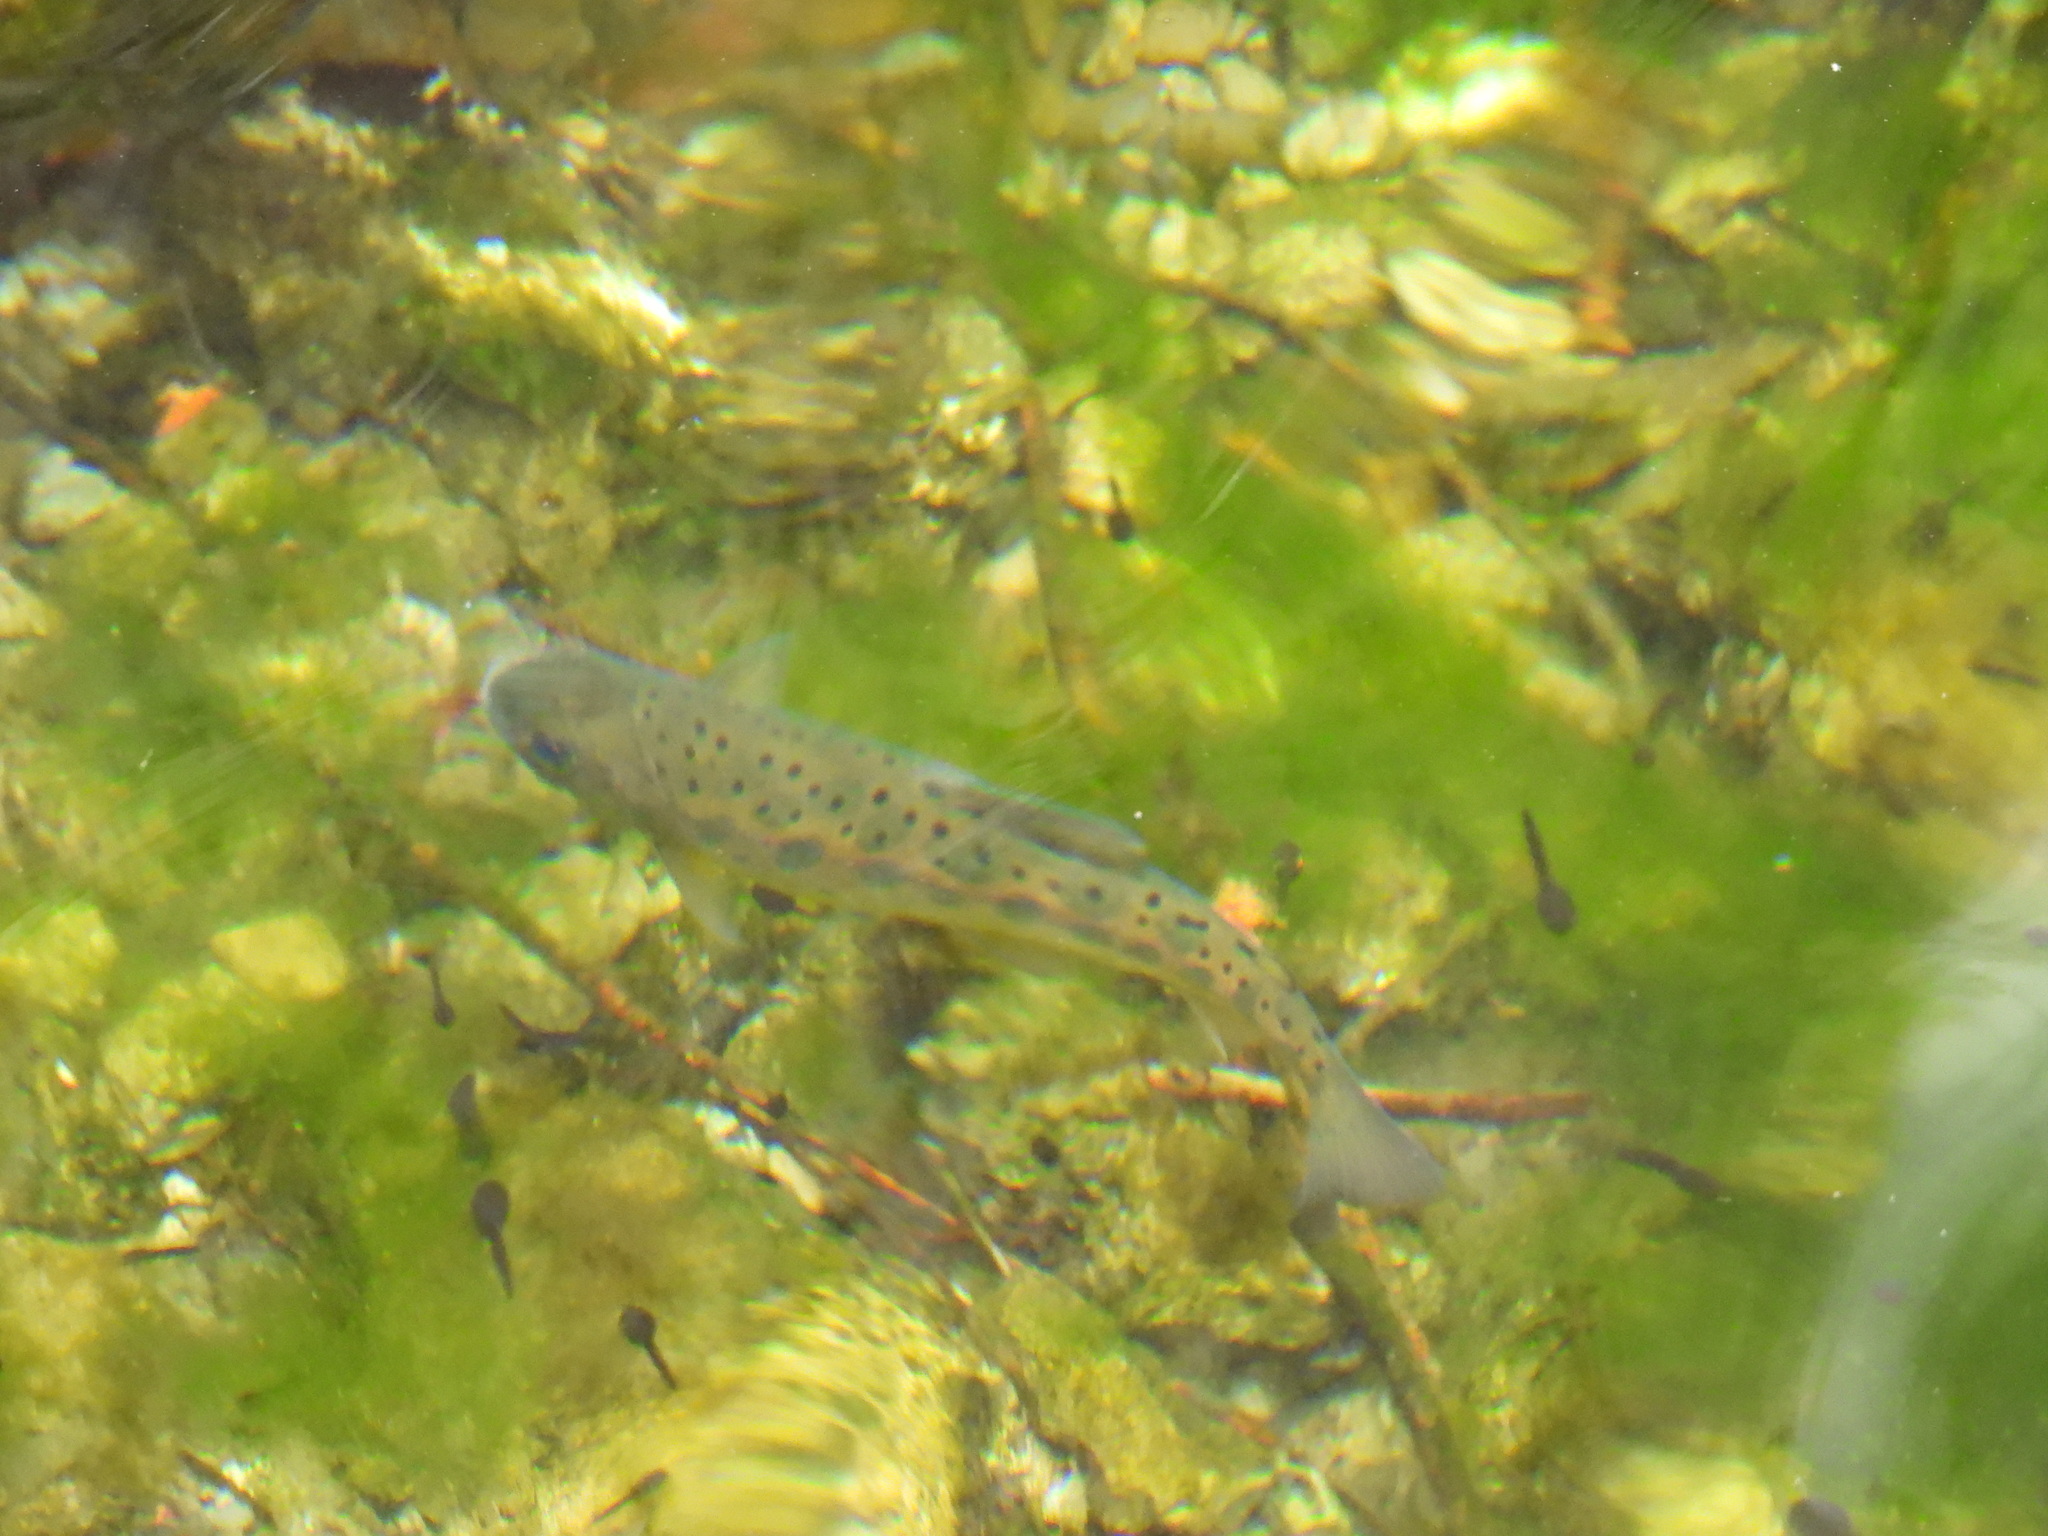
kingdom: Animalia
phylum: Chordata
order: Salmoniformes
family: Salmonidae
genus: Oncorhynchus
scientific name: Oncorhynchus formosanus
